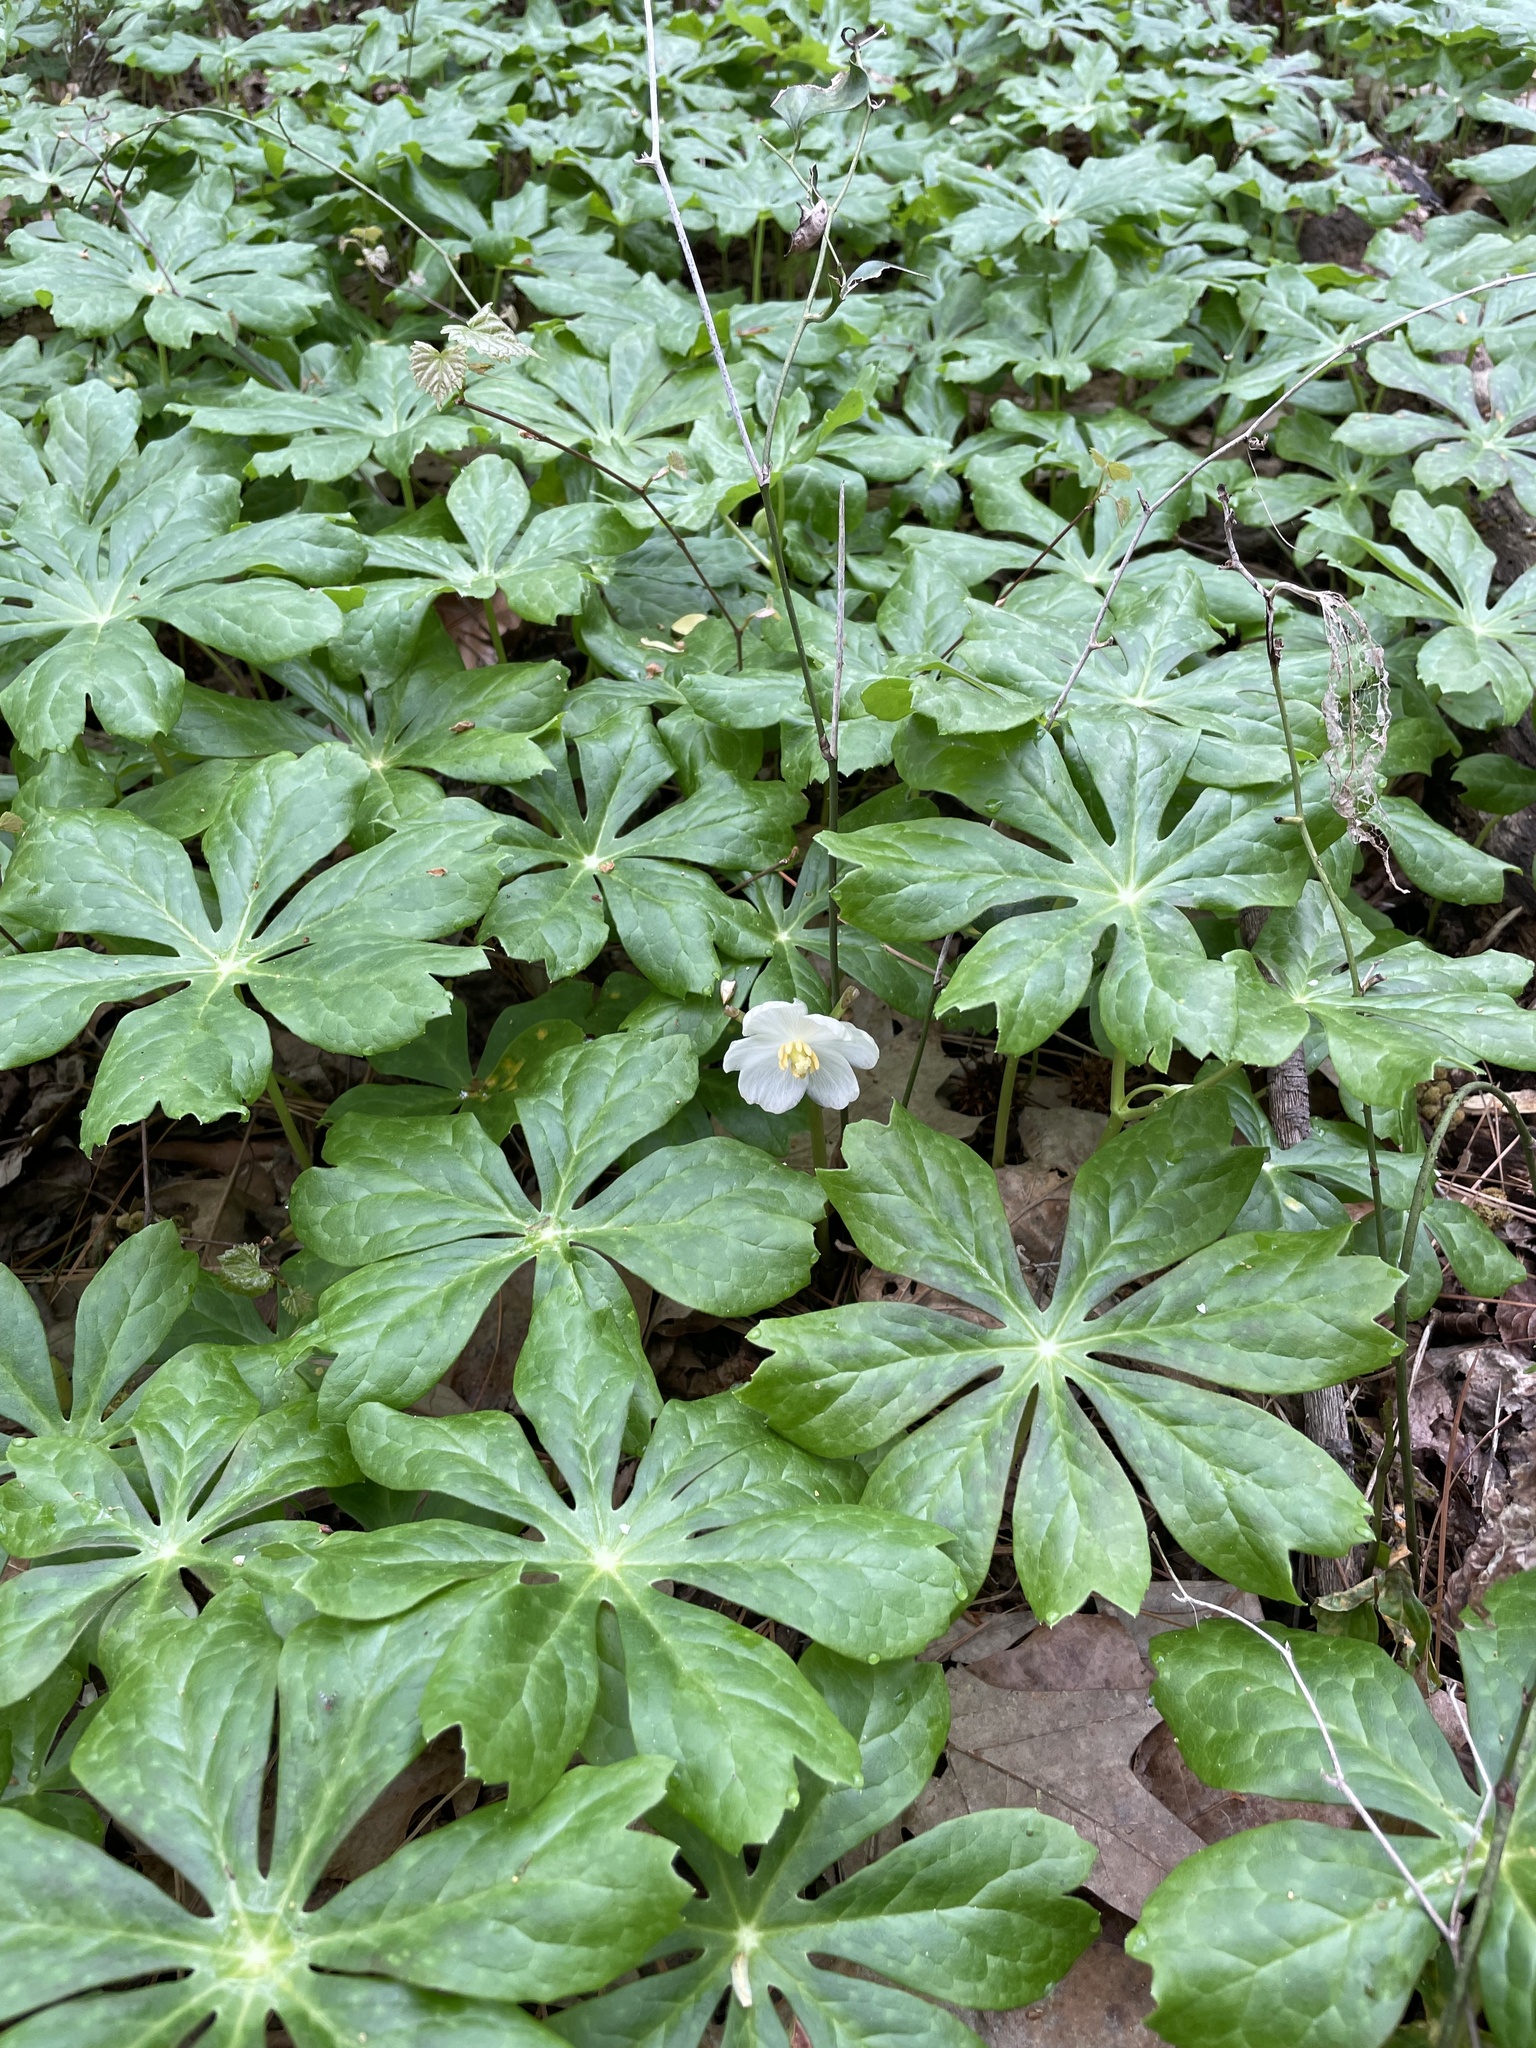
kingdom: Plantae
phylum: Tracheophyta
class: Magnoliopsida
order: Ranunculales
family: Berberidaceae
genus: Podophyllum
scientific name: Podophyllum peltatum
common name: Wild mandrake
